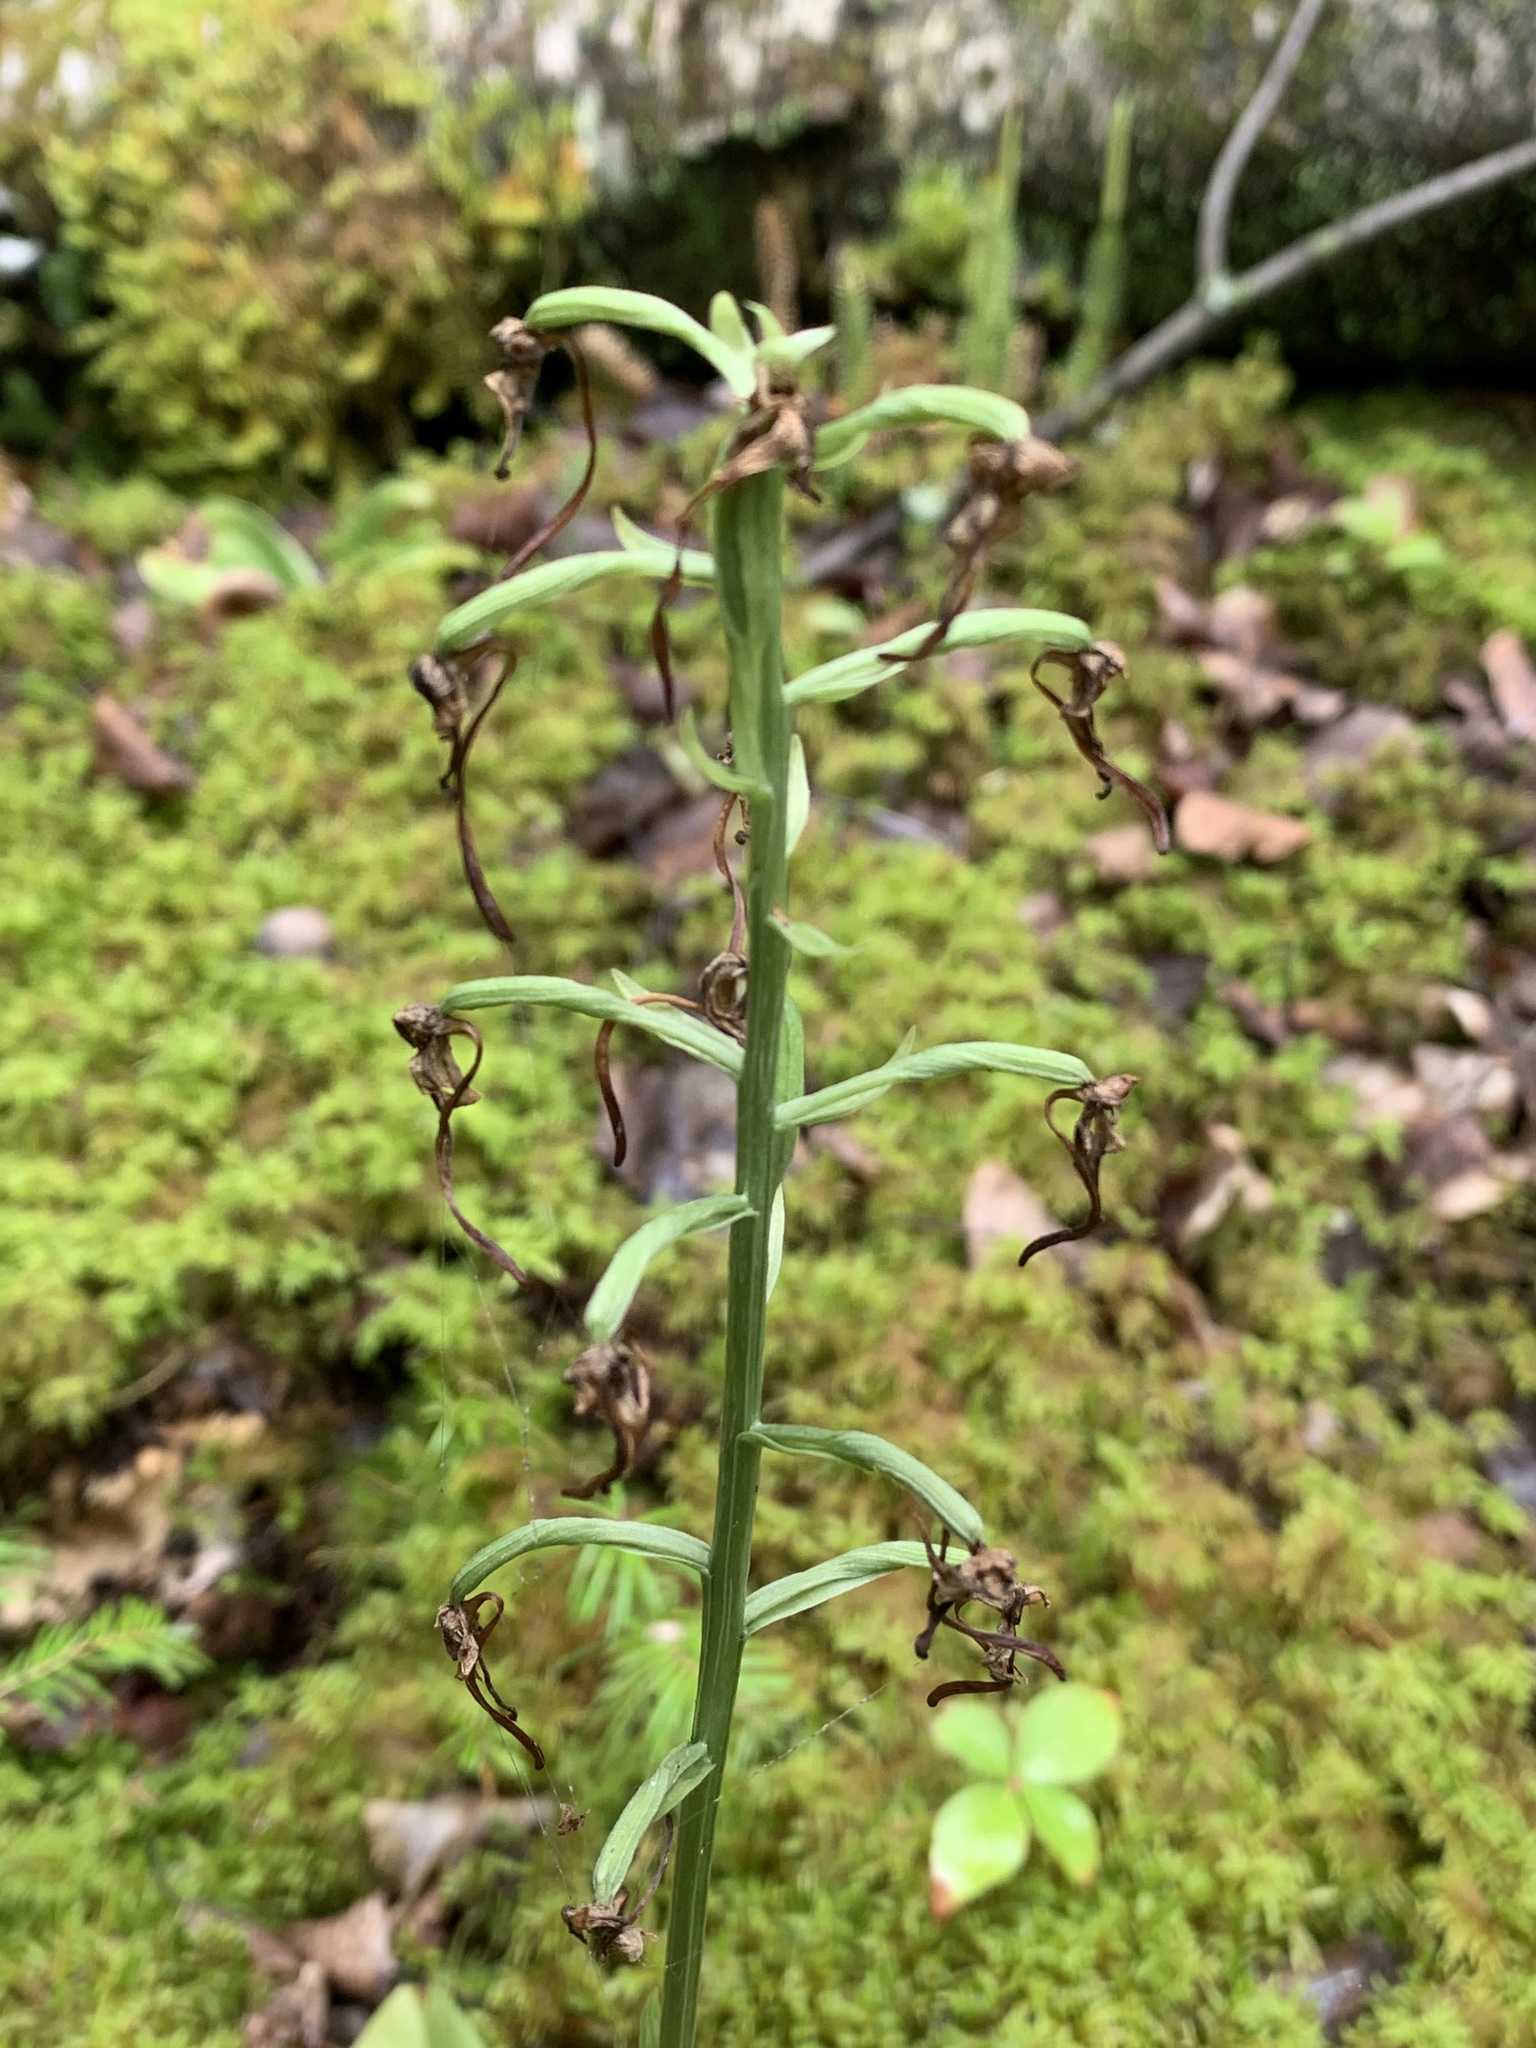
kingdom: Plantae
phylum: Tracheophyta
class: Liliopsida
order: Asparagales
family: Orchidaceae
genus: Platanthera
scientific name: Platanthera orbiculata
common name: Large round-leaved orchid
